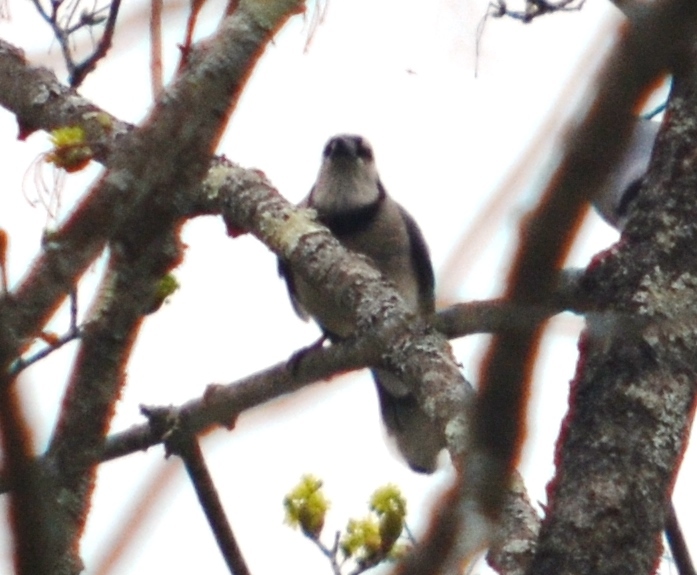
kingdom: Animalia
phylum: Chordata
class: Aves
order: Passeriformes
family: Corvidae
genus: Cyanocitta
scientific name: Cyanocitta cristata
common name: Blue jay
